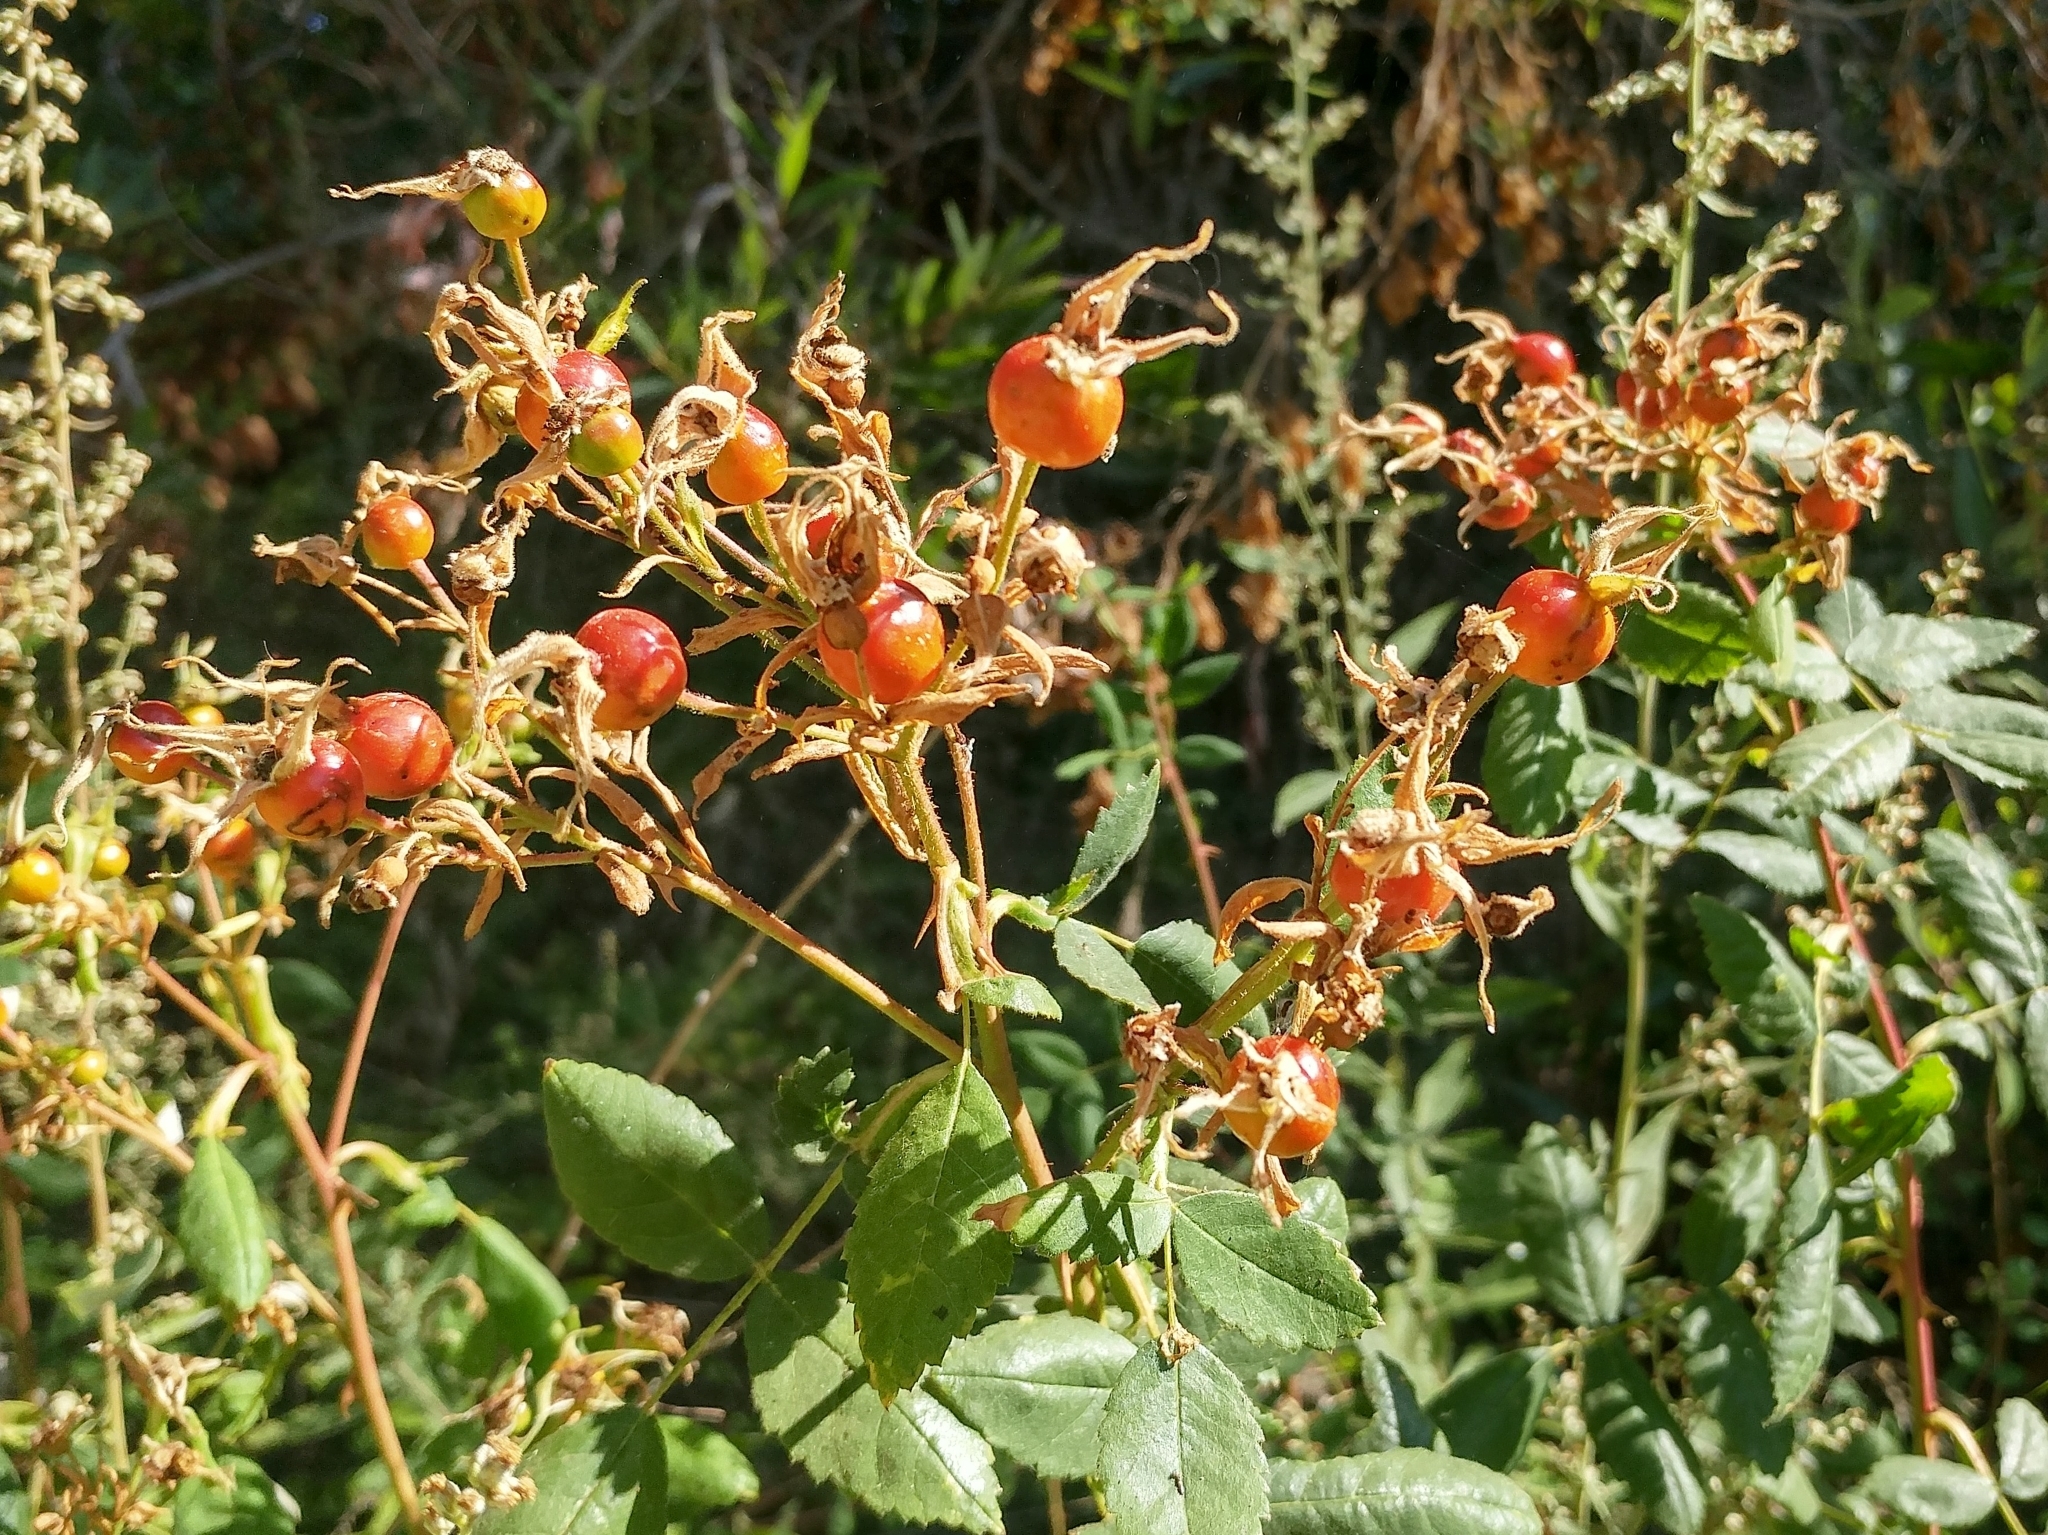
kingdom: Plantae
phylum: Tracheophyta
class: Magnoliopsida
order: Rosales
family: Rosaceae
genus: Rosa
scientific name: Rosa californica
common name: California rose
